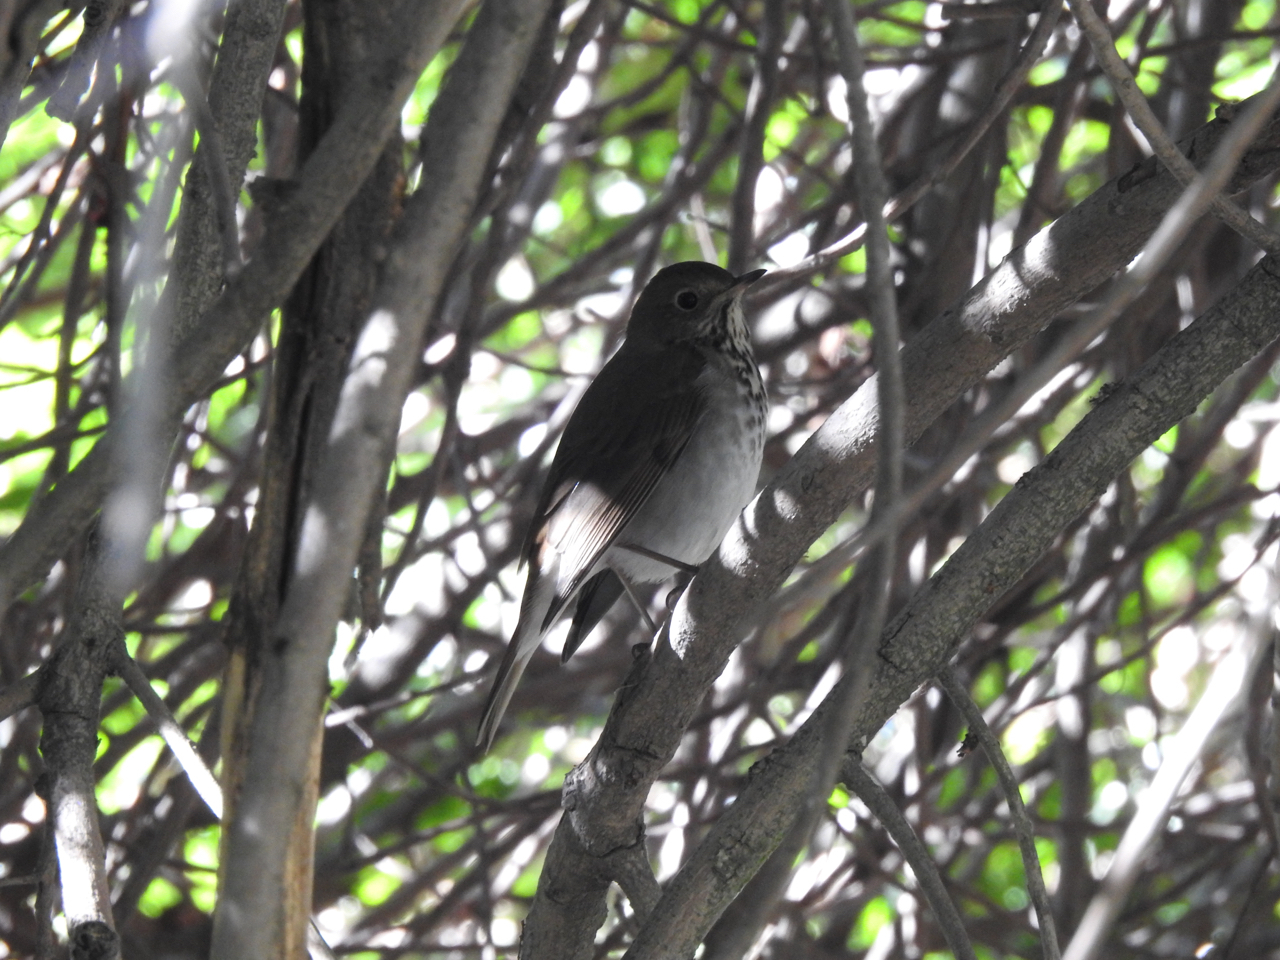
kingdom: Animalia
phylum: Chordata
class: Aves
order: Passeriformes
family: Turdidae
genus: Catharus
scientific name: Catharus guttatus
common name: Hermit thrush
